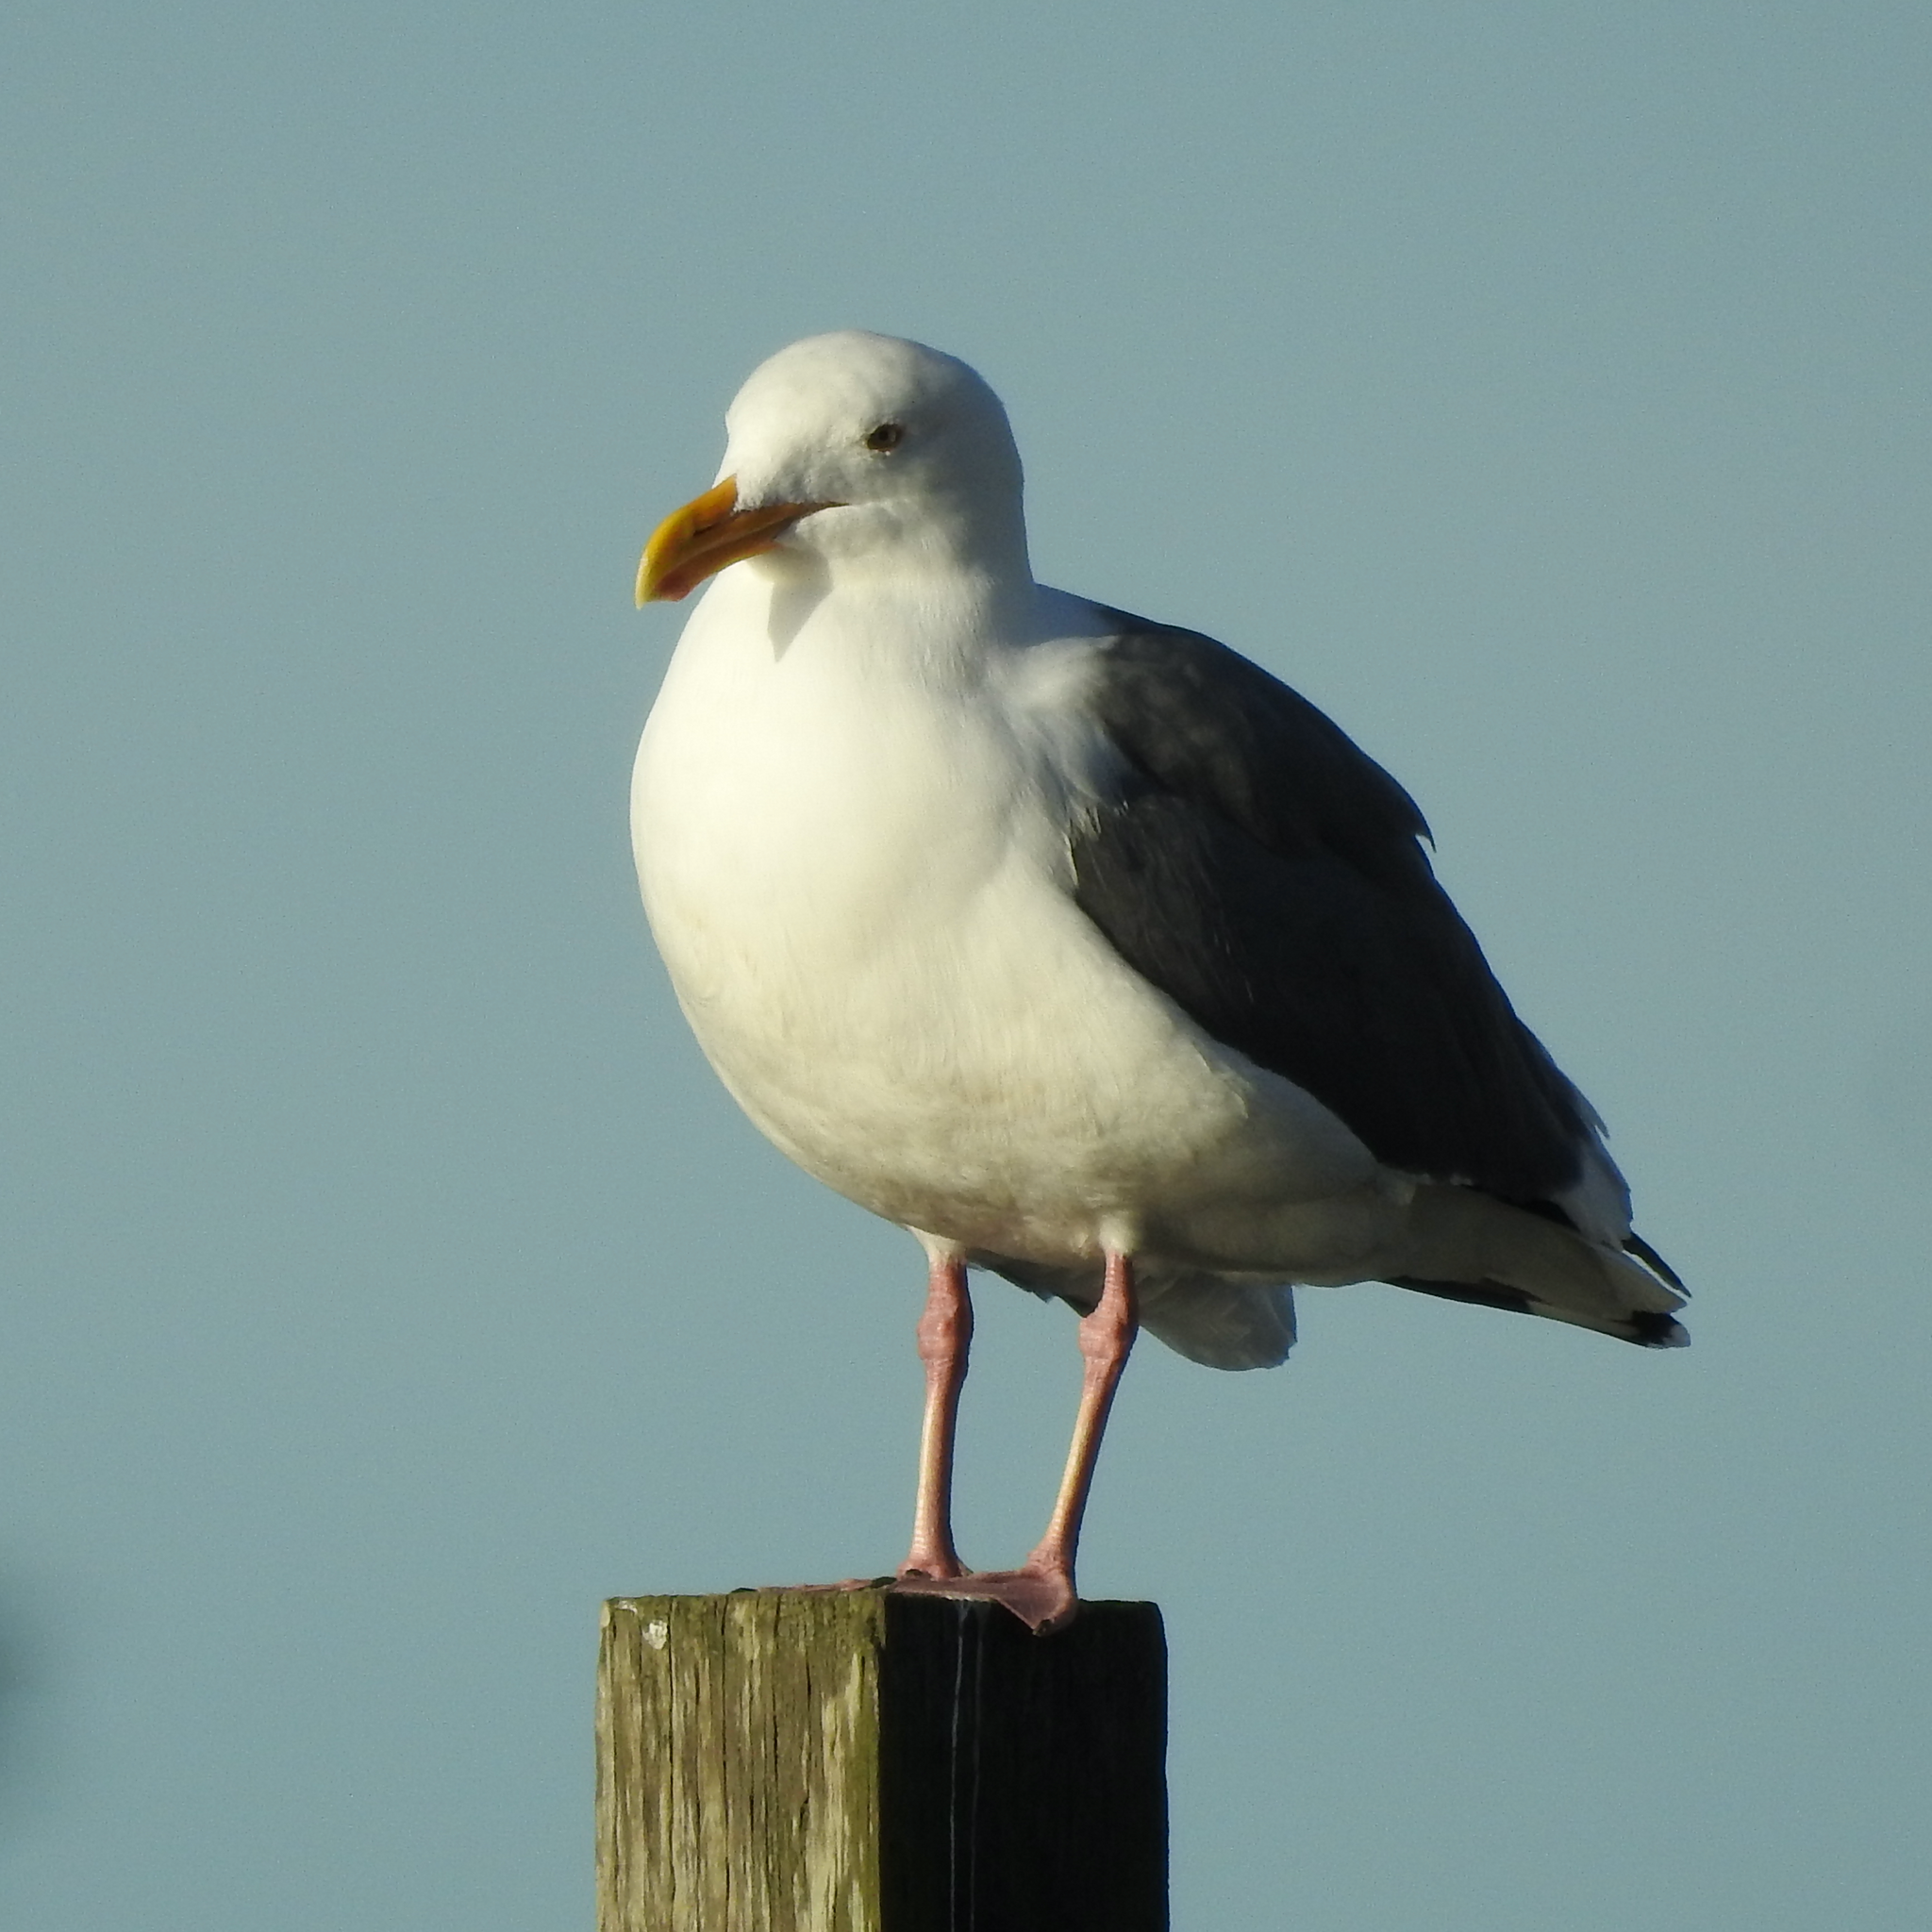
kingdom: Animalia
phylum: Chordata
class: Aves
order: Charadriiformes
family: Laridae
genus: Larus
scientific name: Larus occidentalis
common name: Western gull
